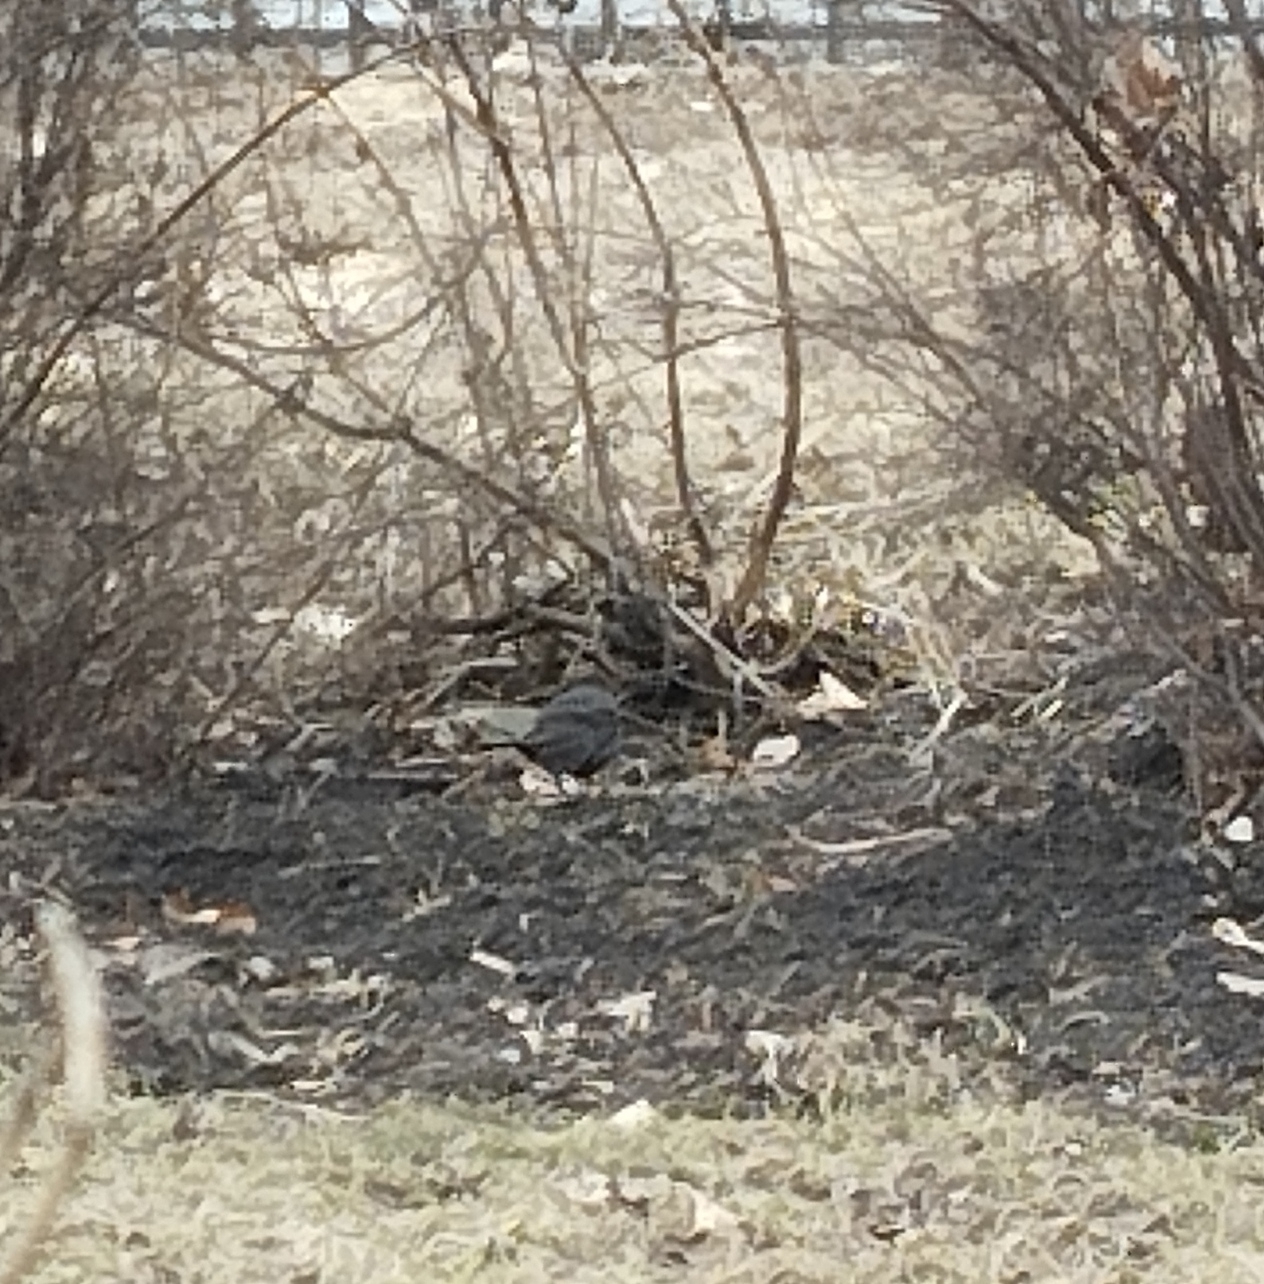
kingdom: Animalia
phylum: Chordata
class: Aves
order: Passeriformes
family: Turdidae
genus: Turdus
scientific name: Turdus merula
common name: Common blackbird
